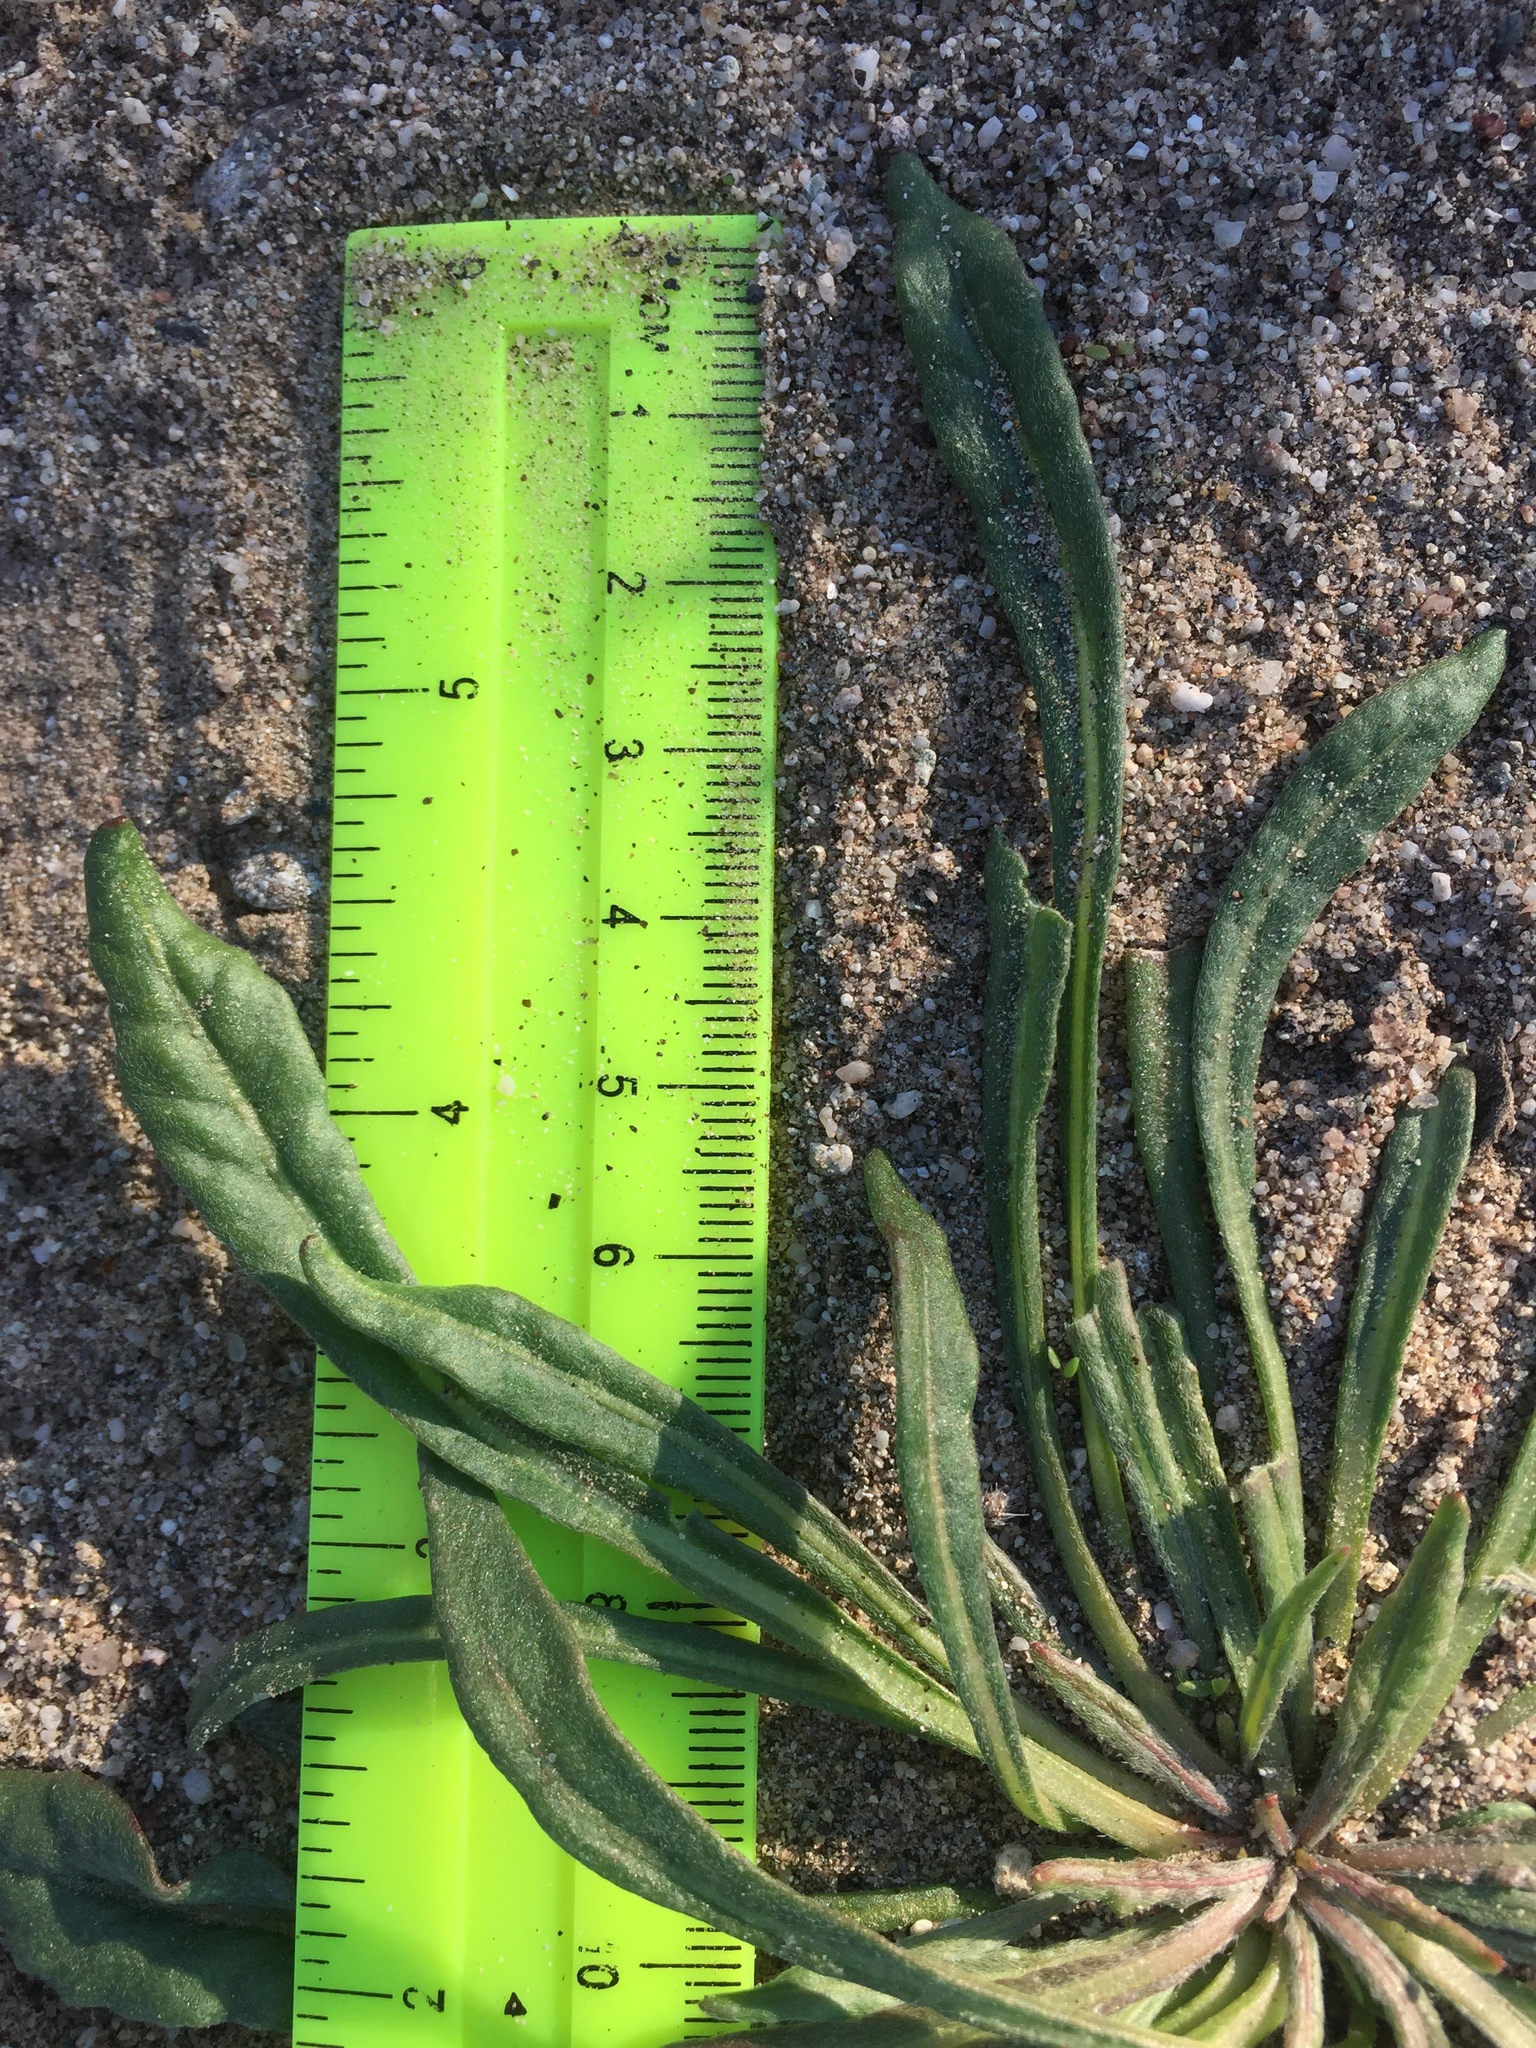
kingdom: Plantae
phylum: Tracheophyta
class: Magnoliopsida
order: Caryophyllales
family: Polygonaceae
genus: Chorizanthe
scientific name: Chorizanthe brevicornu
